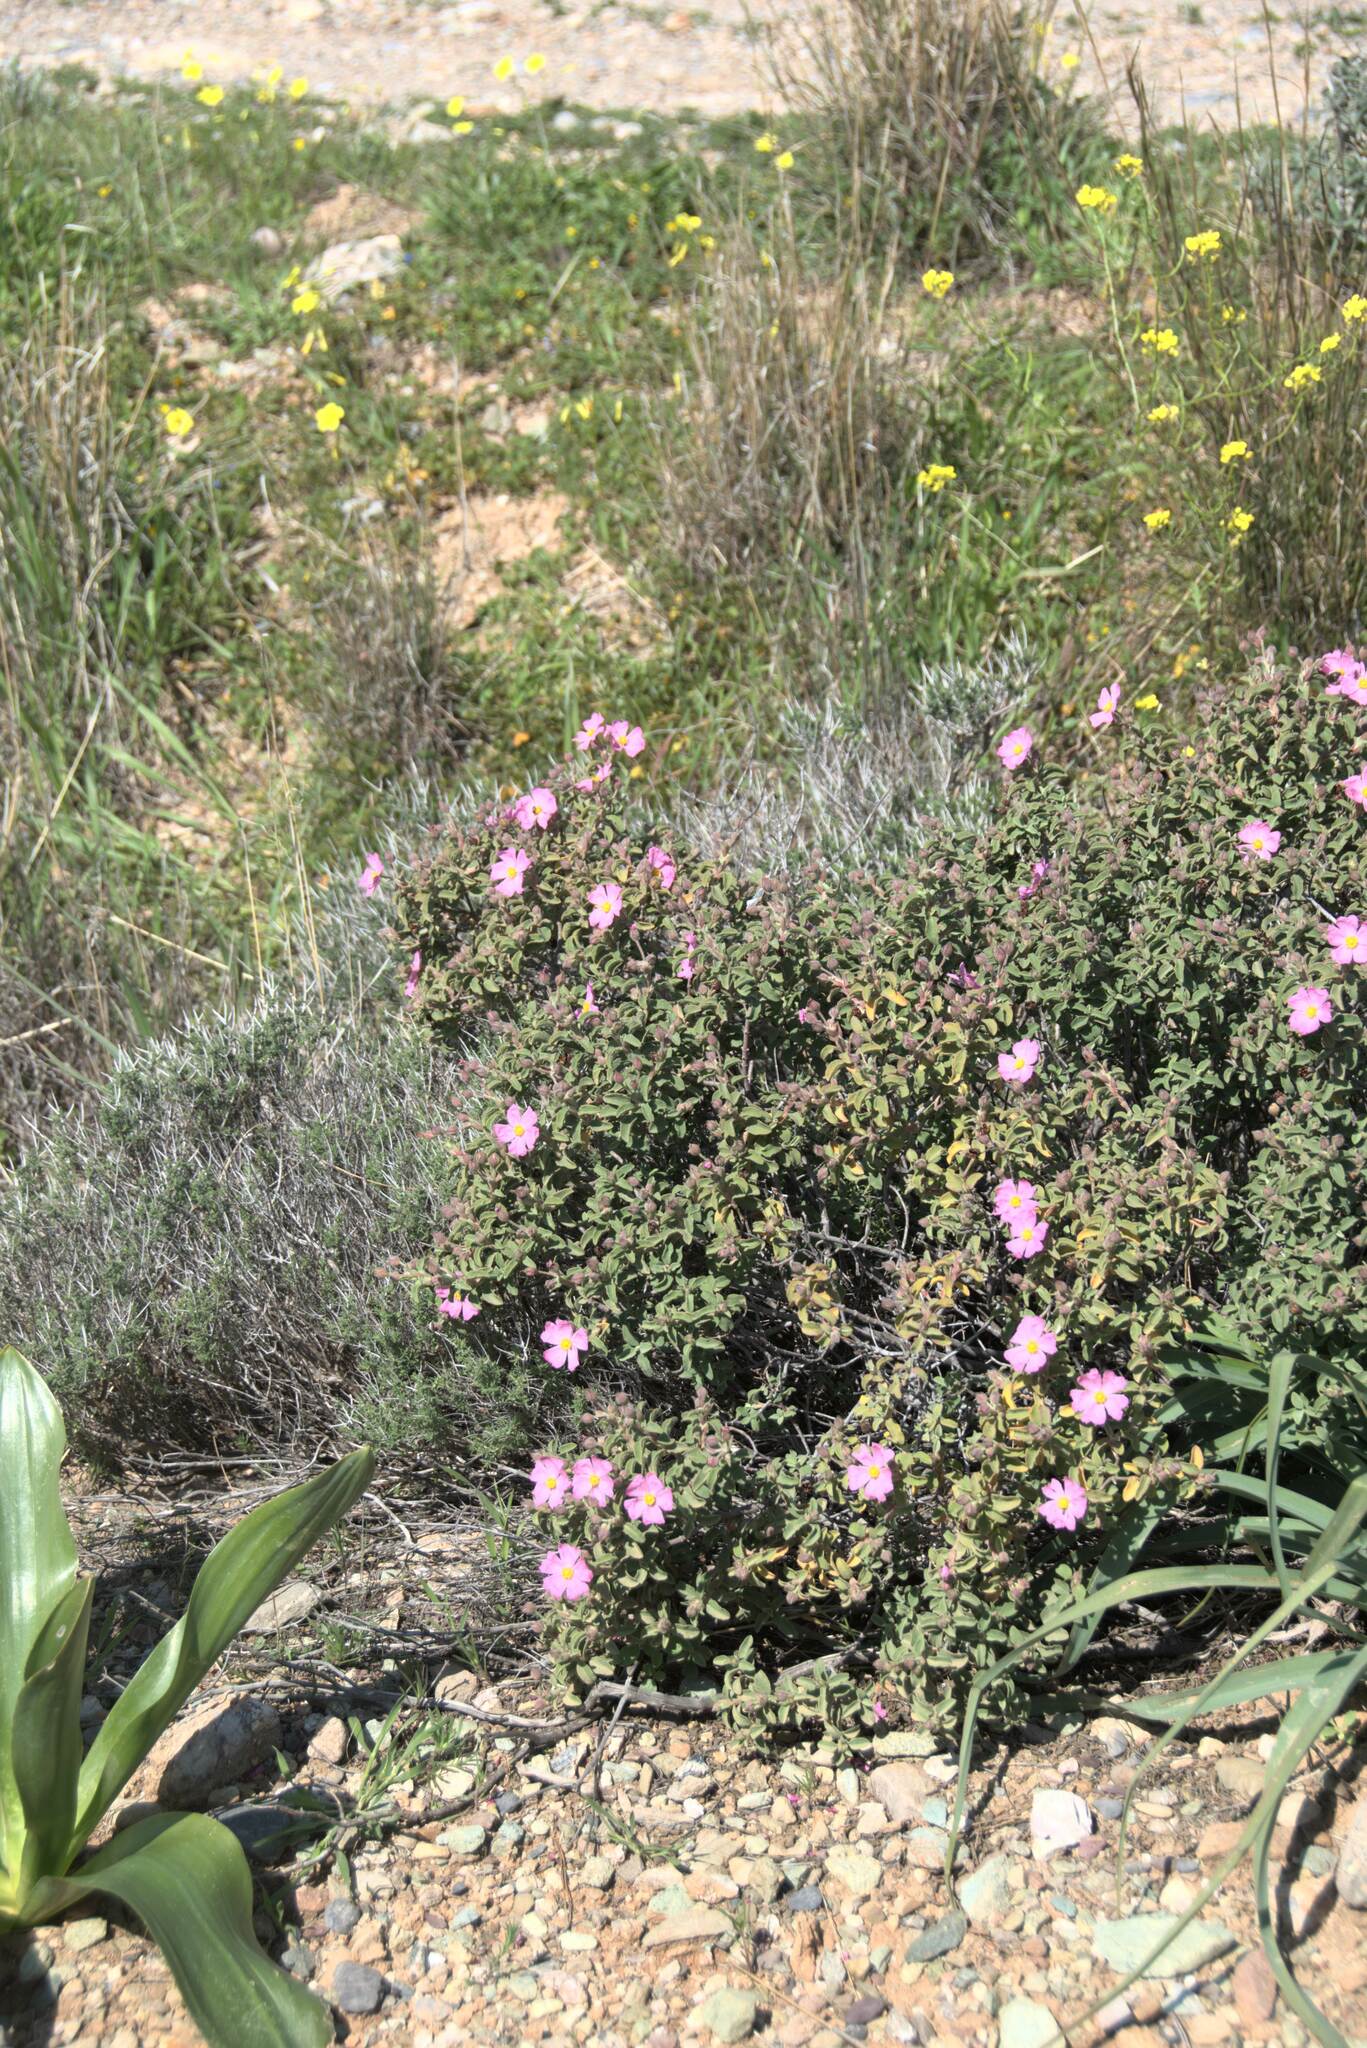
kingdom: Plantae
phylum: Tracheophyta
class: Magnoliopsida
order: Malvales
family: Cistaceae
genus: Cistus
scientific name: Cistus parviflorus
